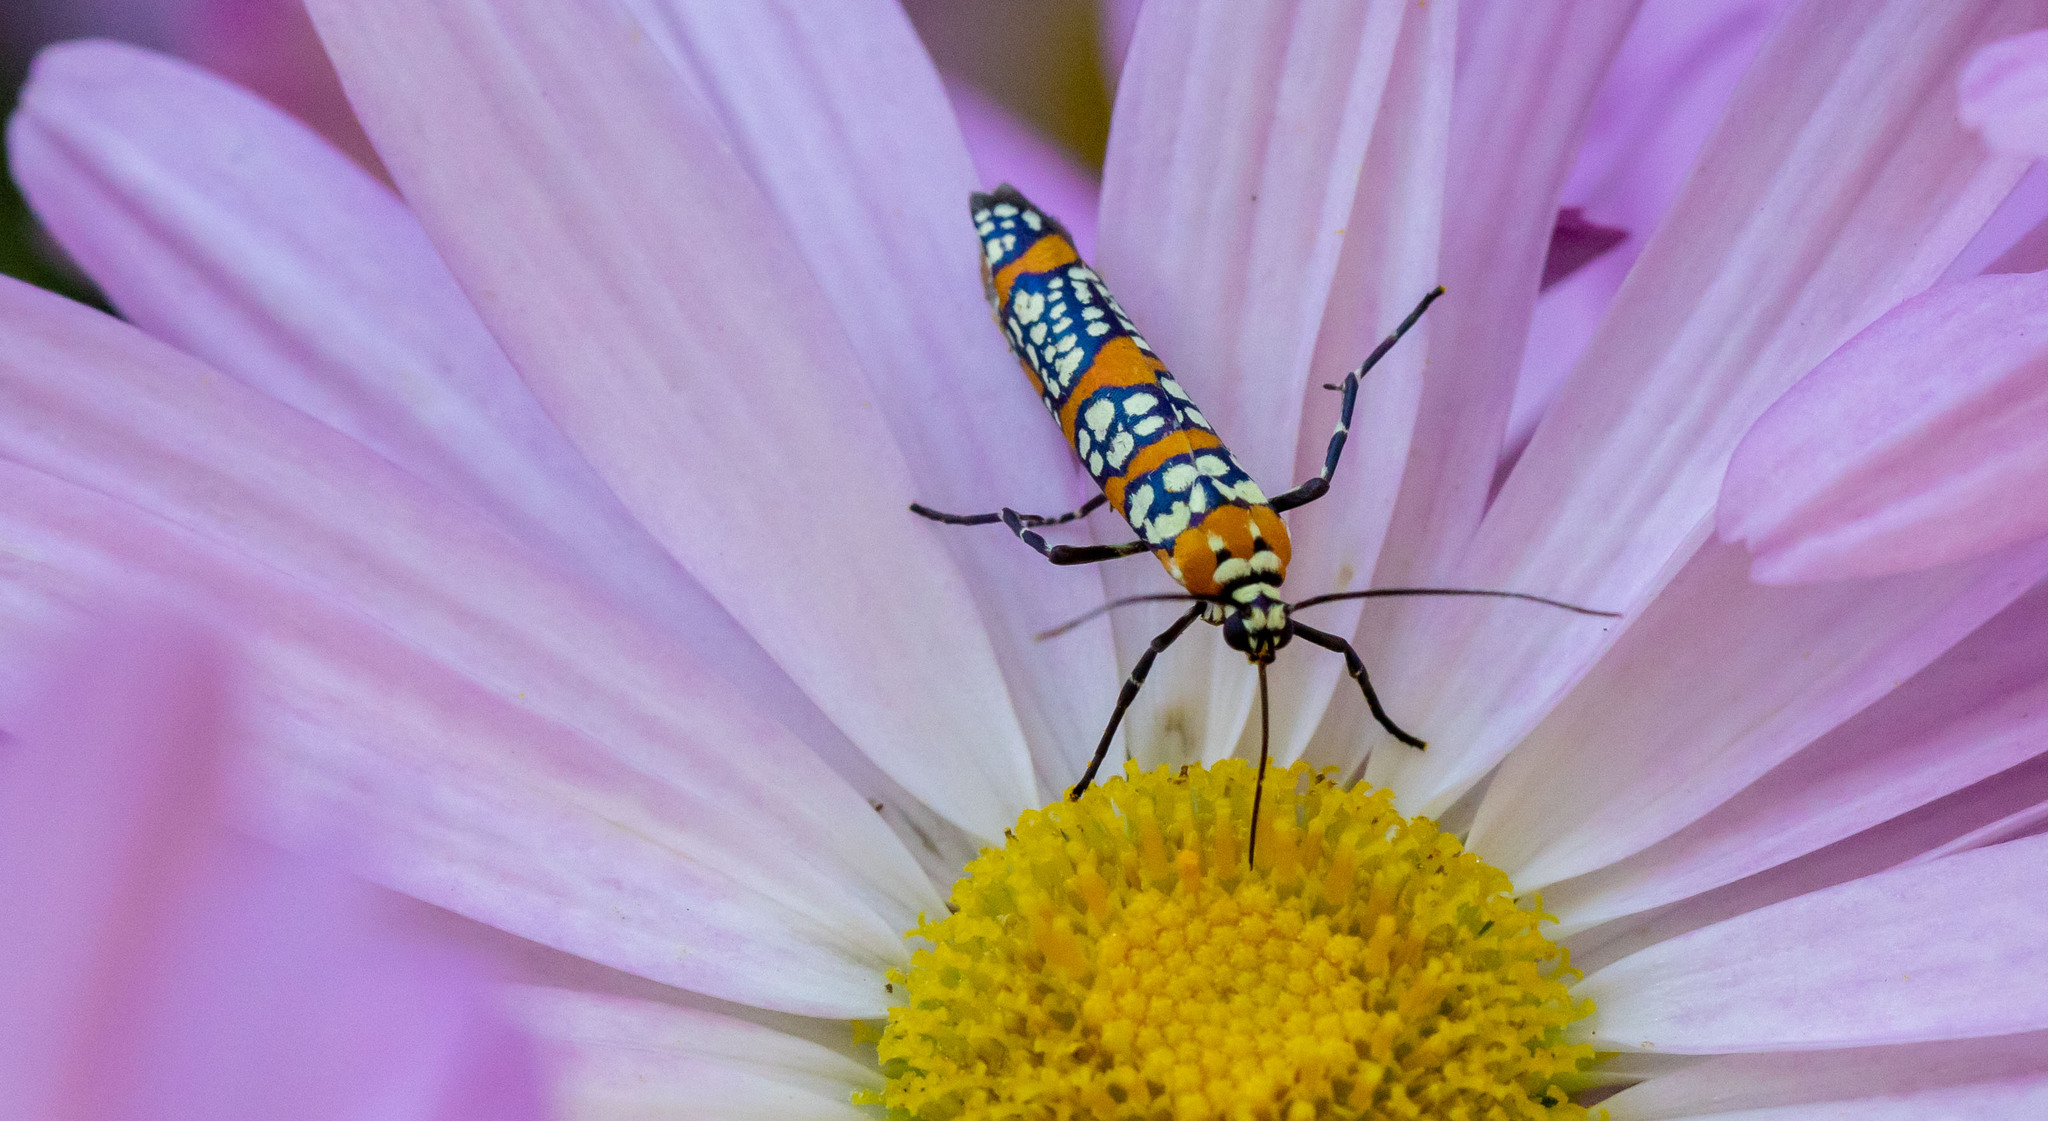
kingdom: Animalia
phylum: Arthropoda
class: Insecta
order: Lepidoptera
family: Attevidae
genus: Atteva
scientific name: Atteva punctella
